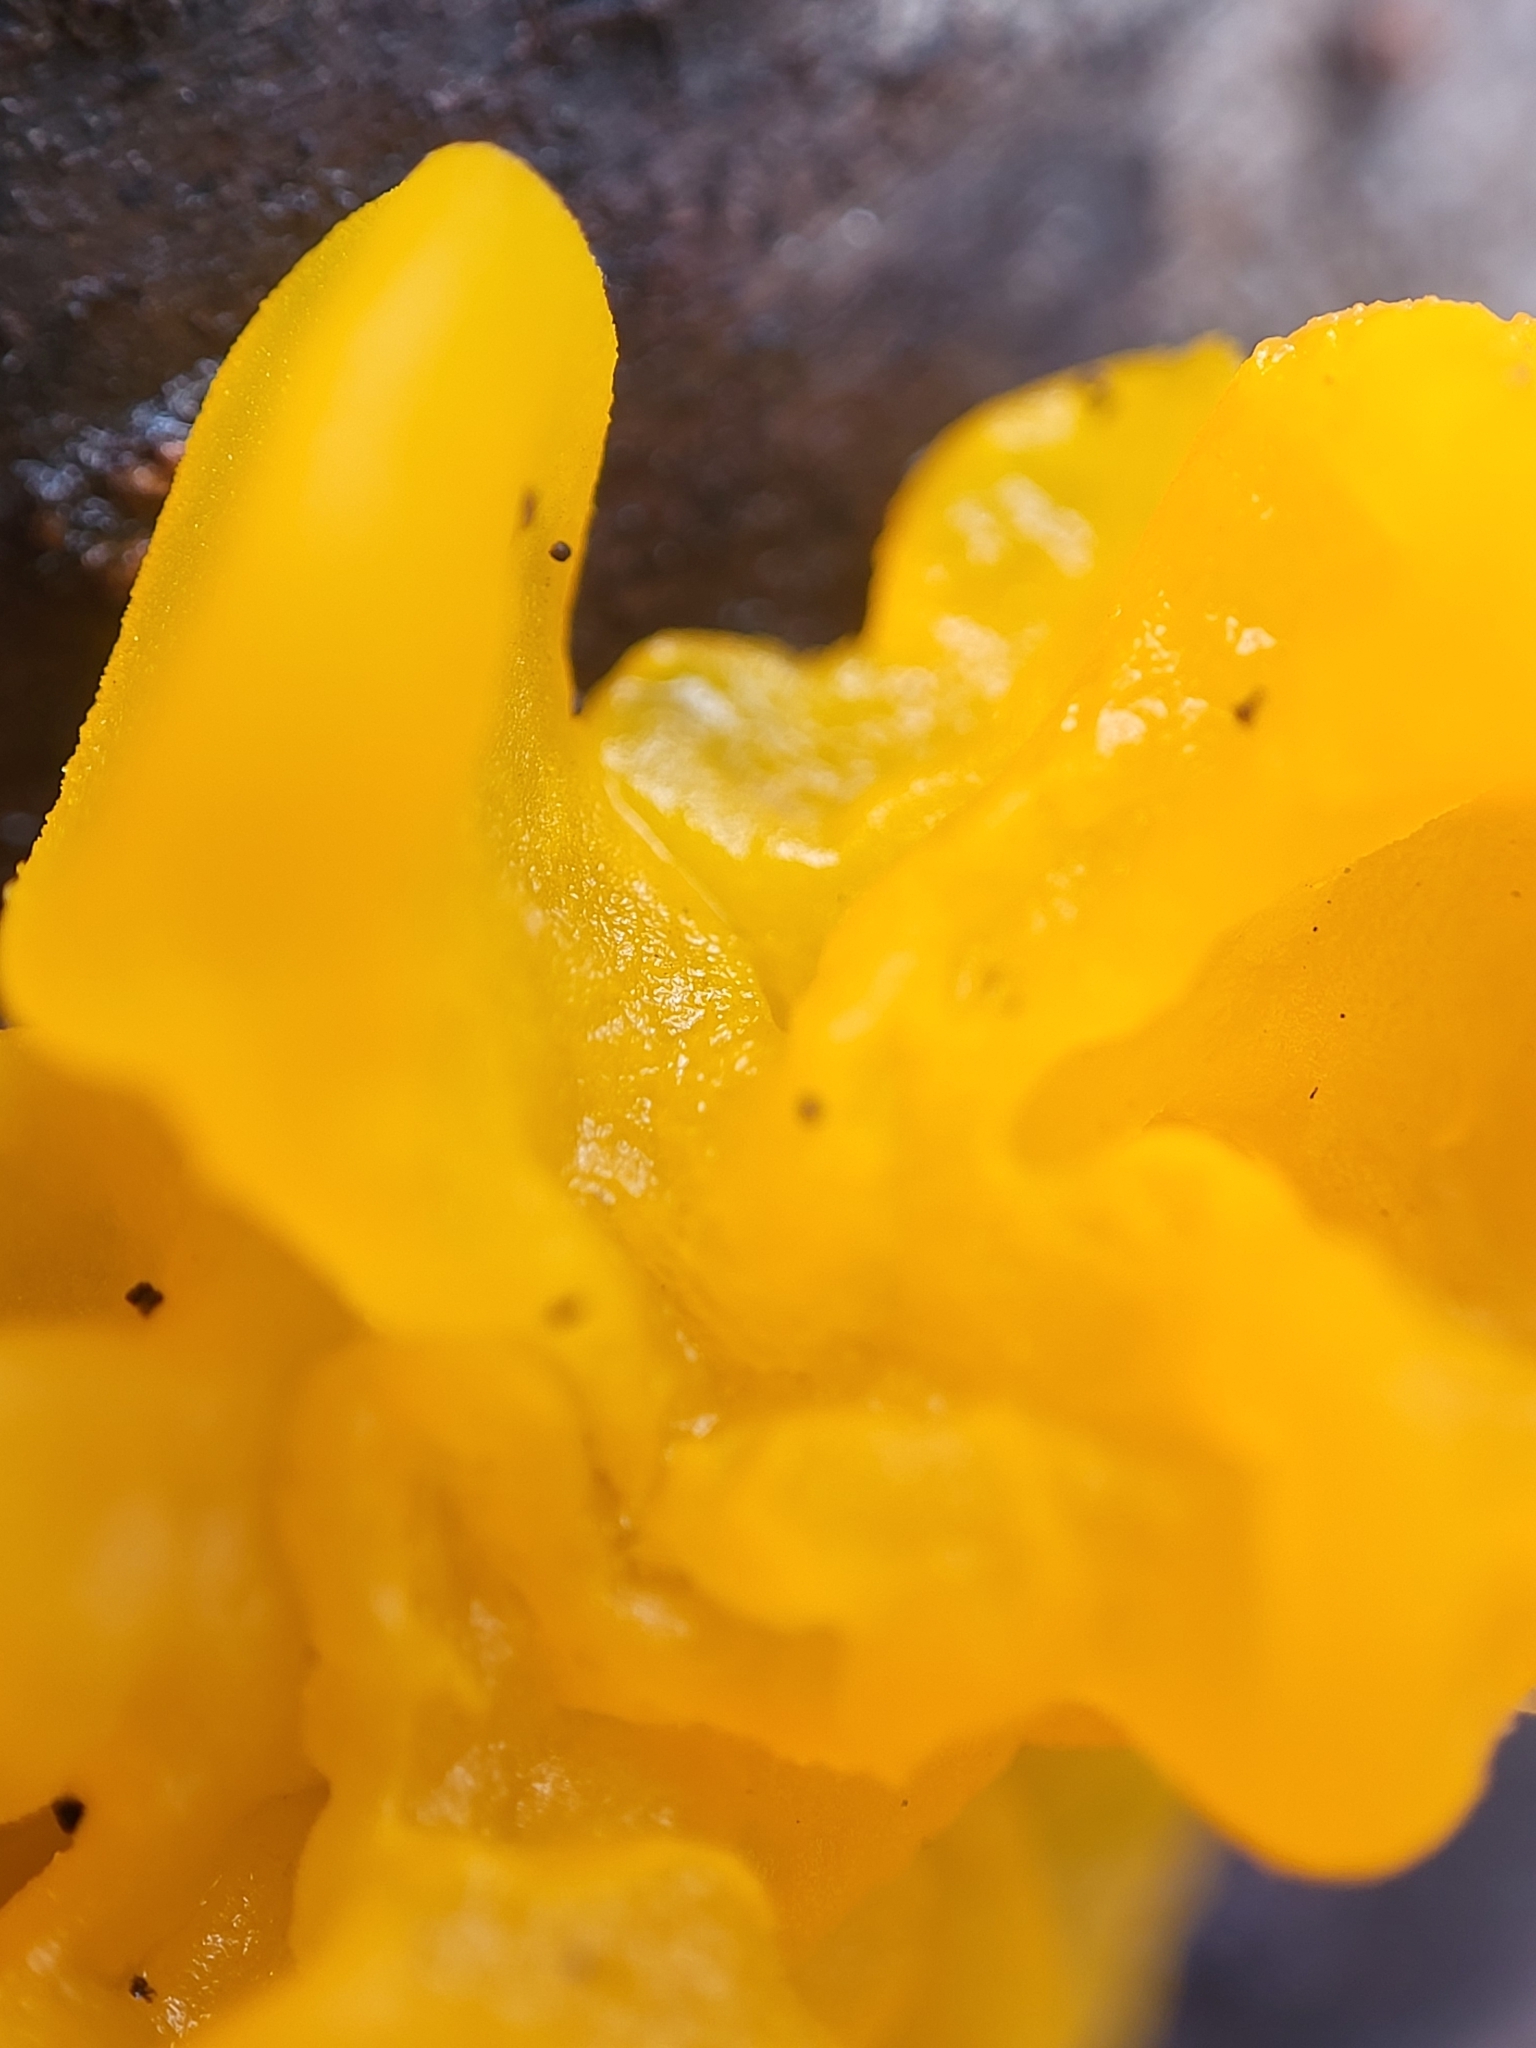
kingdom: Fungi
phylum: Basidiomycota
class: Tremellomycetes
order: Tremellales
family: Tremellaceae
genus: Tremella
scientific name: Tremella mesenterica
